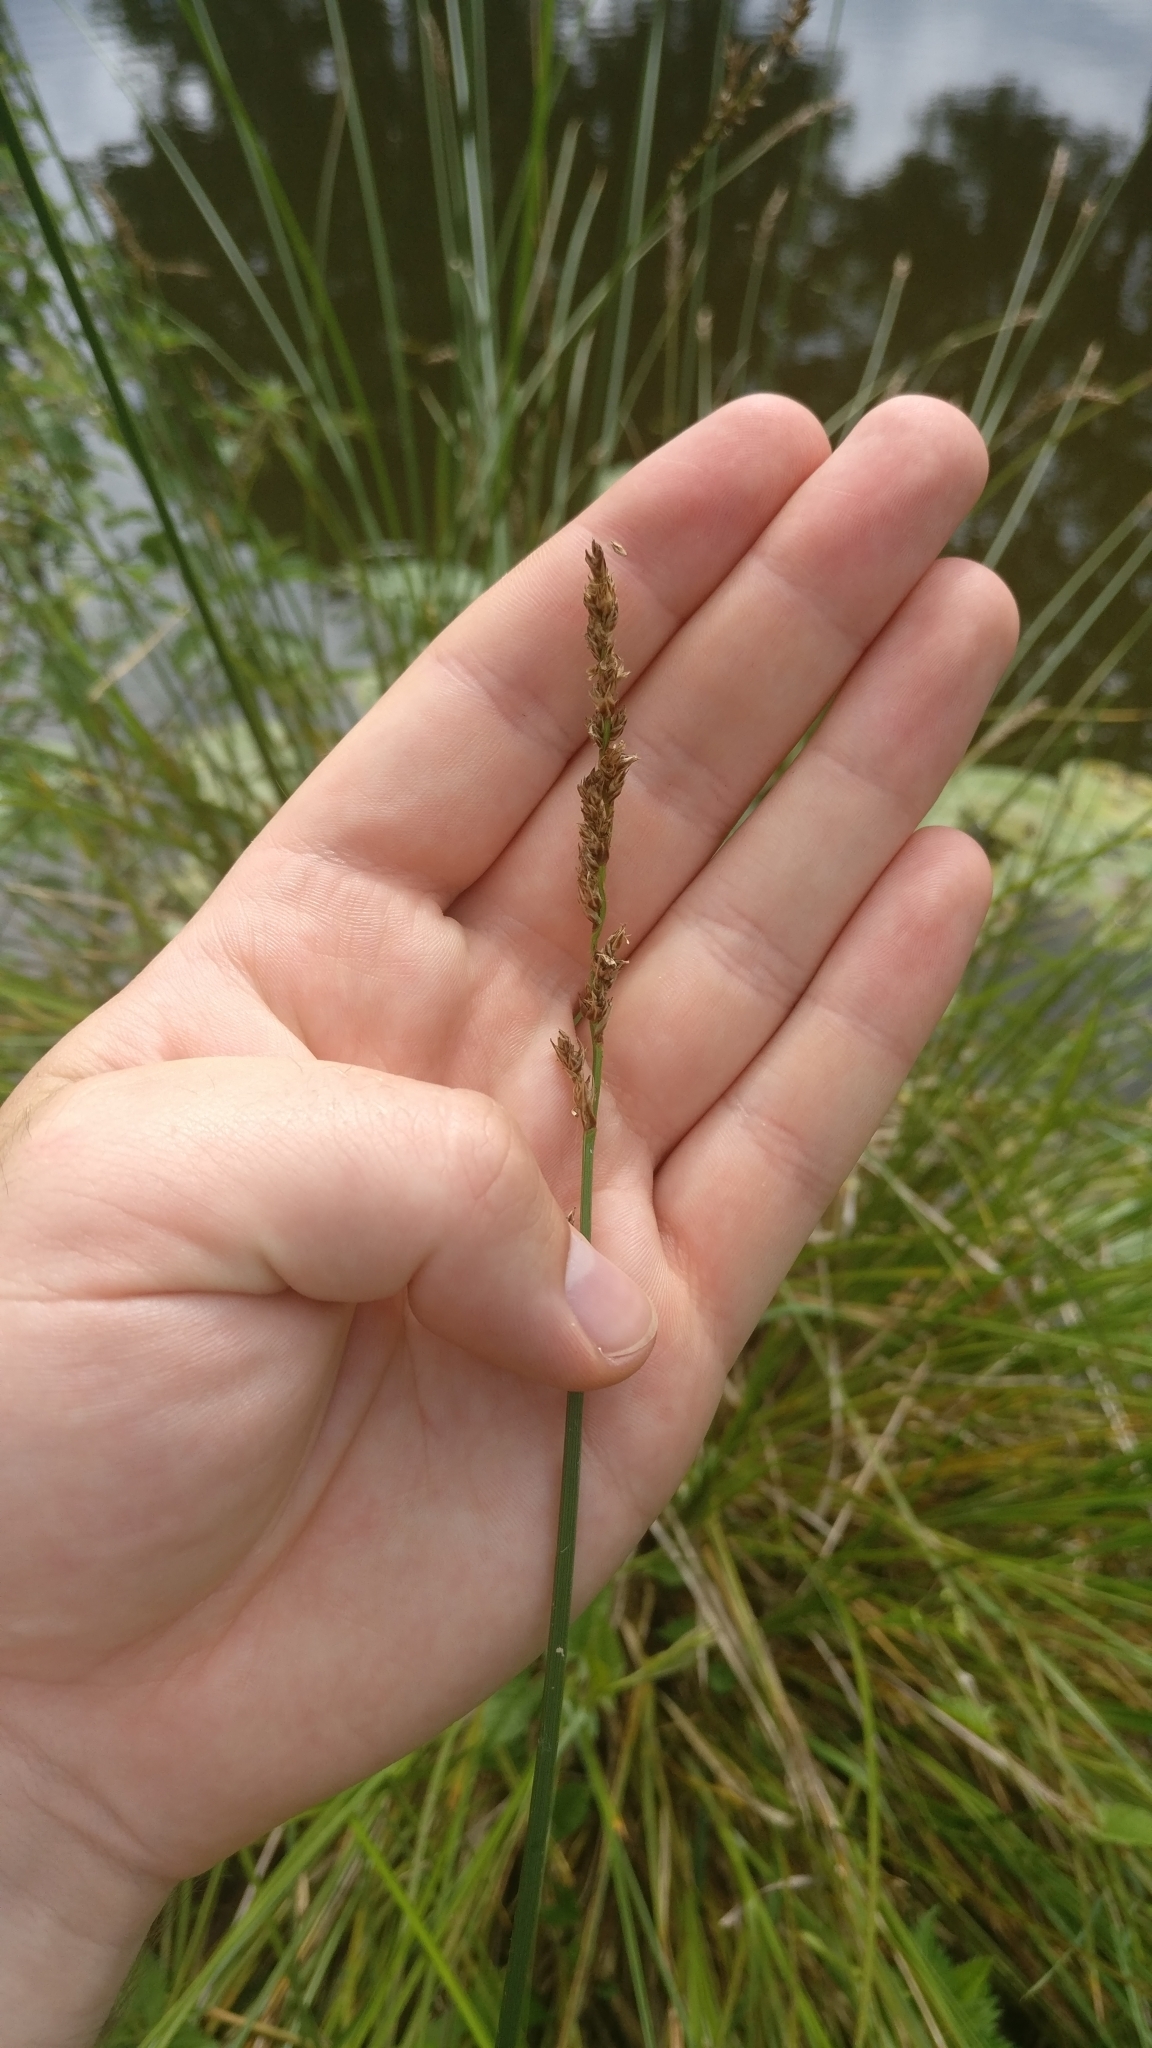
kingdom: Plantae
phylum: Tracheophyta
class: Liliopsida
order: Poales
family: Cyperaceae
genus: Carex
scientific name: Carex paniculata
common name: Greater tussock-sedge
